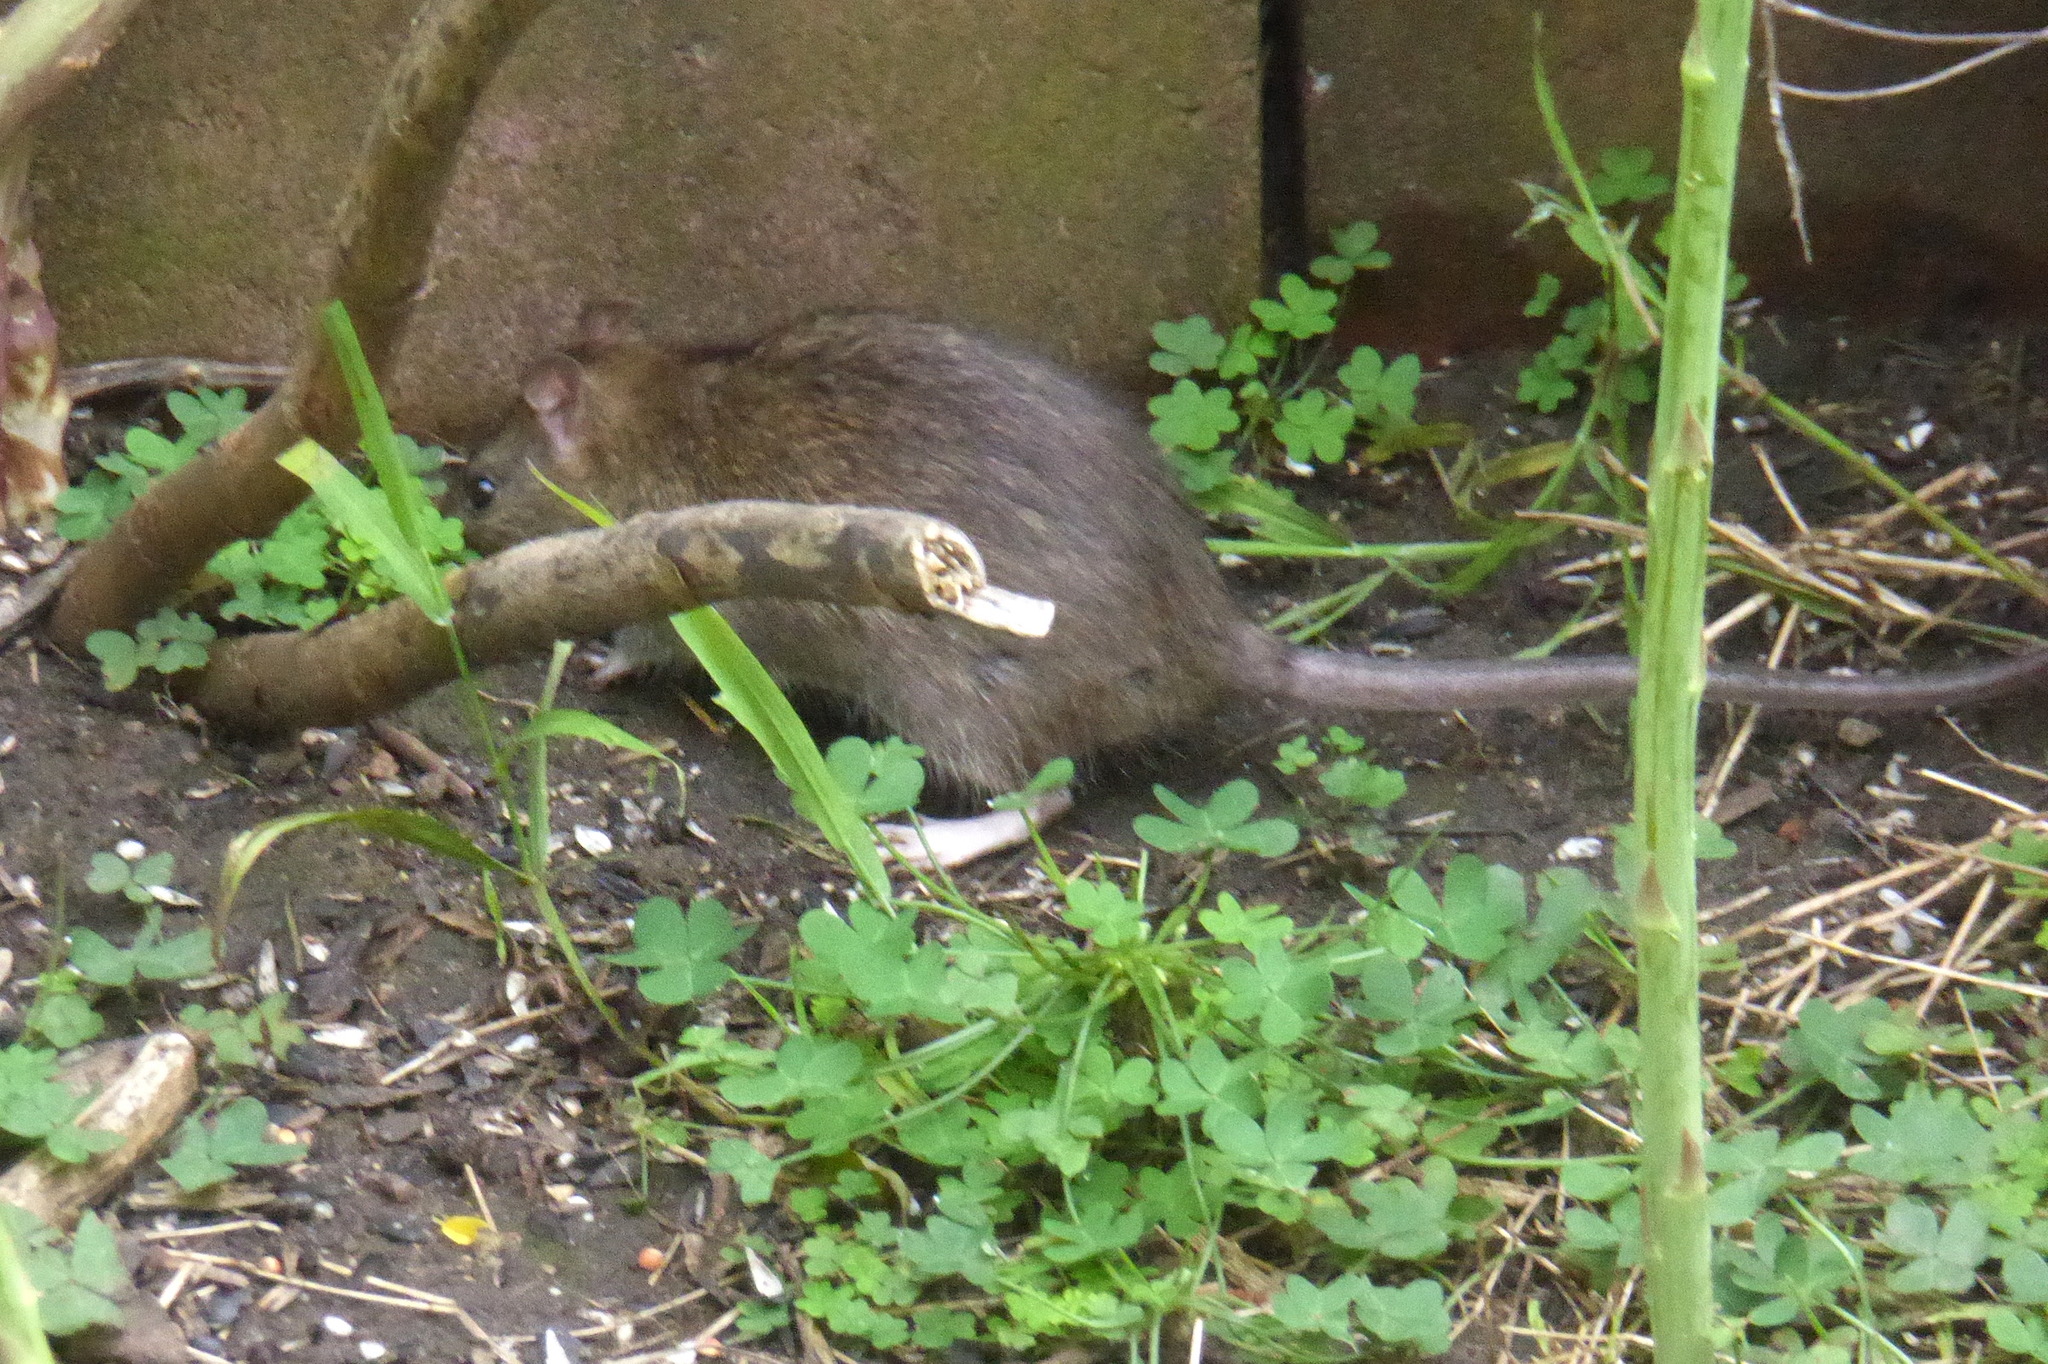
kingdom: Animalia
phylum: Chordata
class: Mammalia
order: Rodentia
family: Muridae
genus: Rattus
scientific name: Rattus norvegicus
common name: Brown rat
